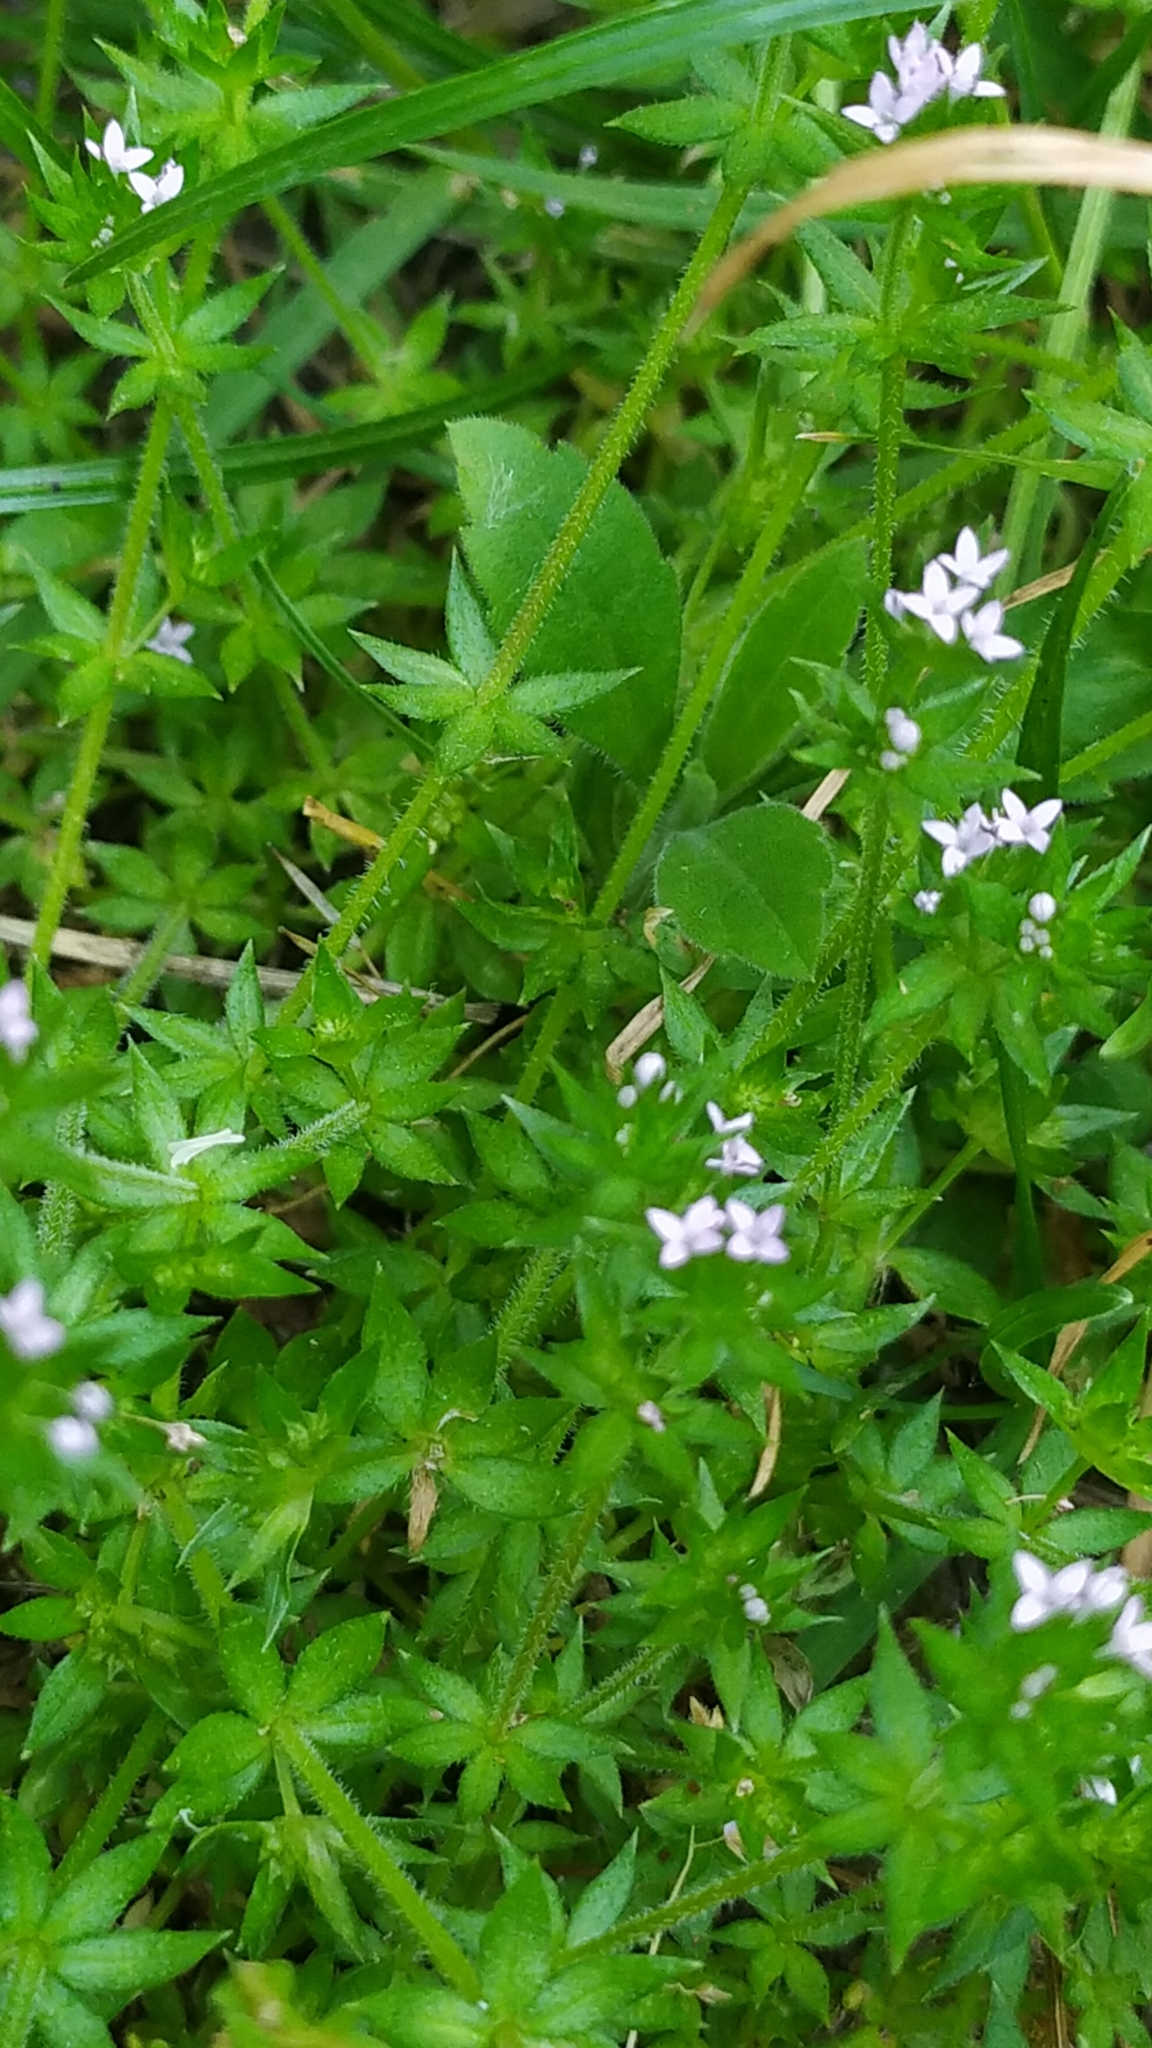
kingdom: Plantae
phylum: Tracheophyta
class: Magnoliopsida
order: Gentianales
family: Rubiaceae
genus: Sherardia
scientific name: Sherardia arvensis
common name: Field madder
